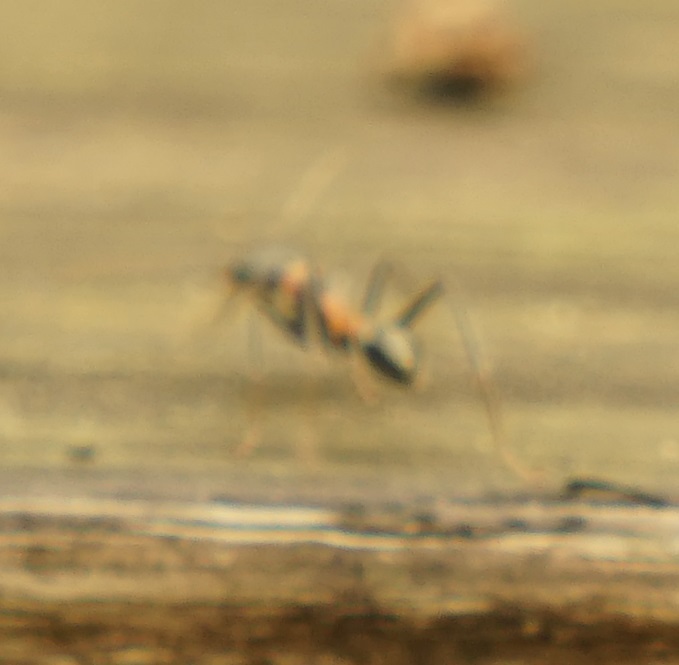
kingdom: Animalia
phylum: Arthropoda
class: Insecta
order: Hymenoptera
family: Formicidae
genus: Myrmecia
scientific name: Myrmecia nigrocincta
